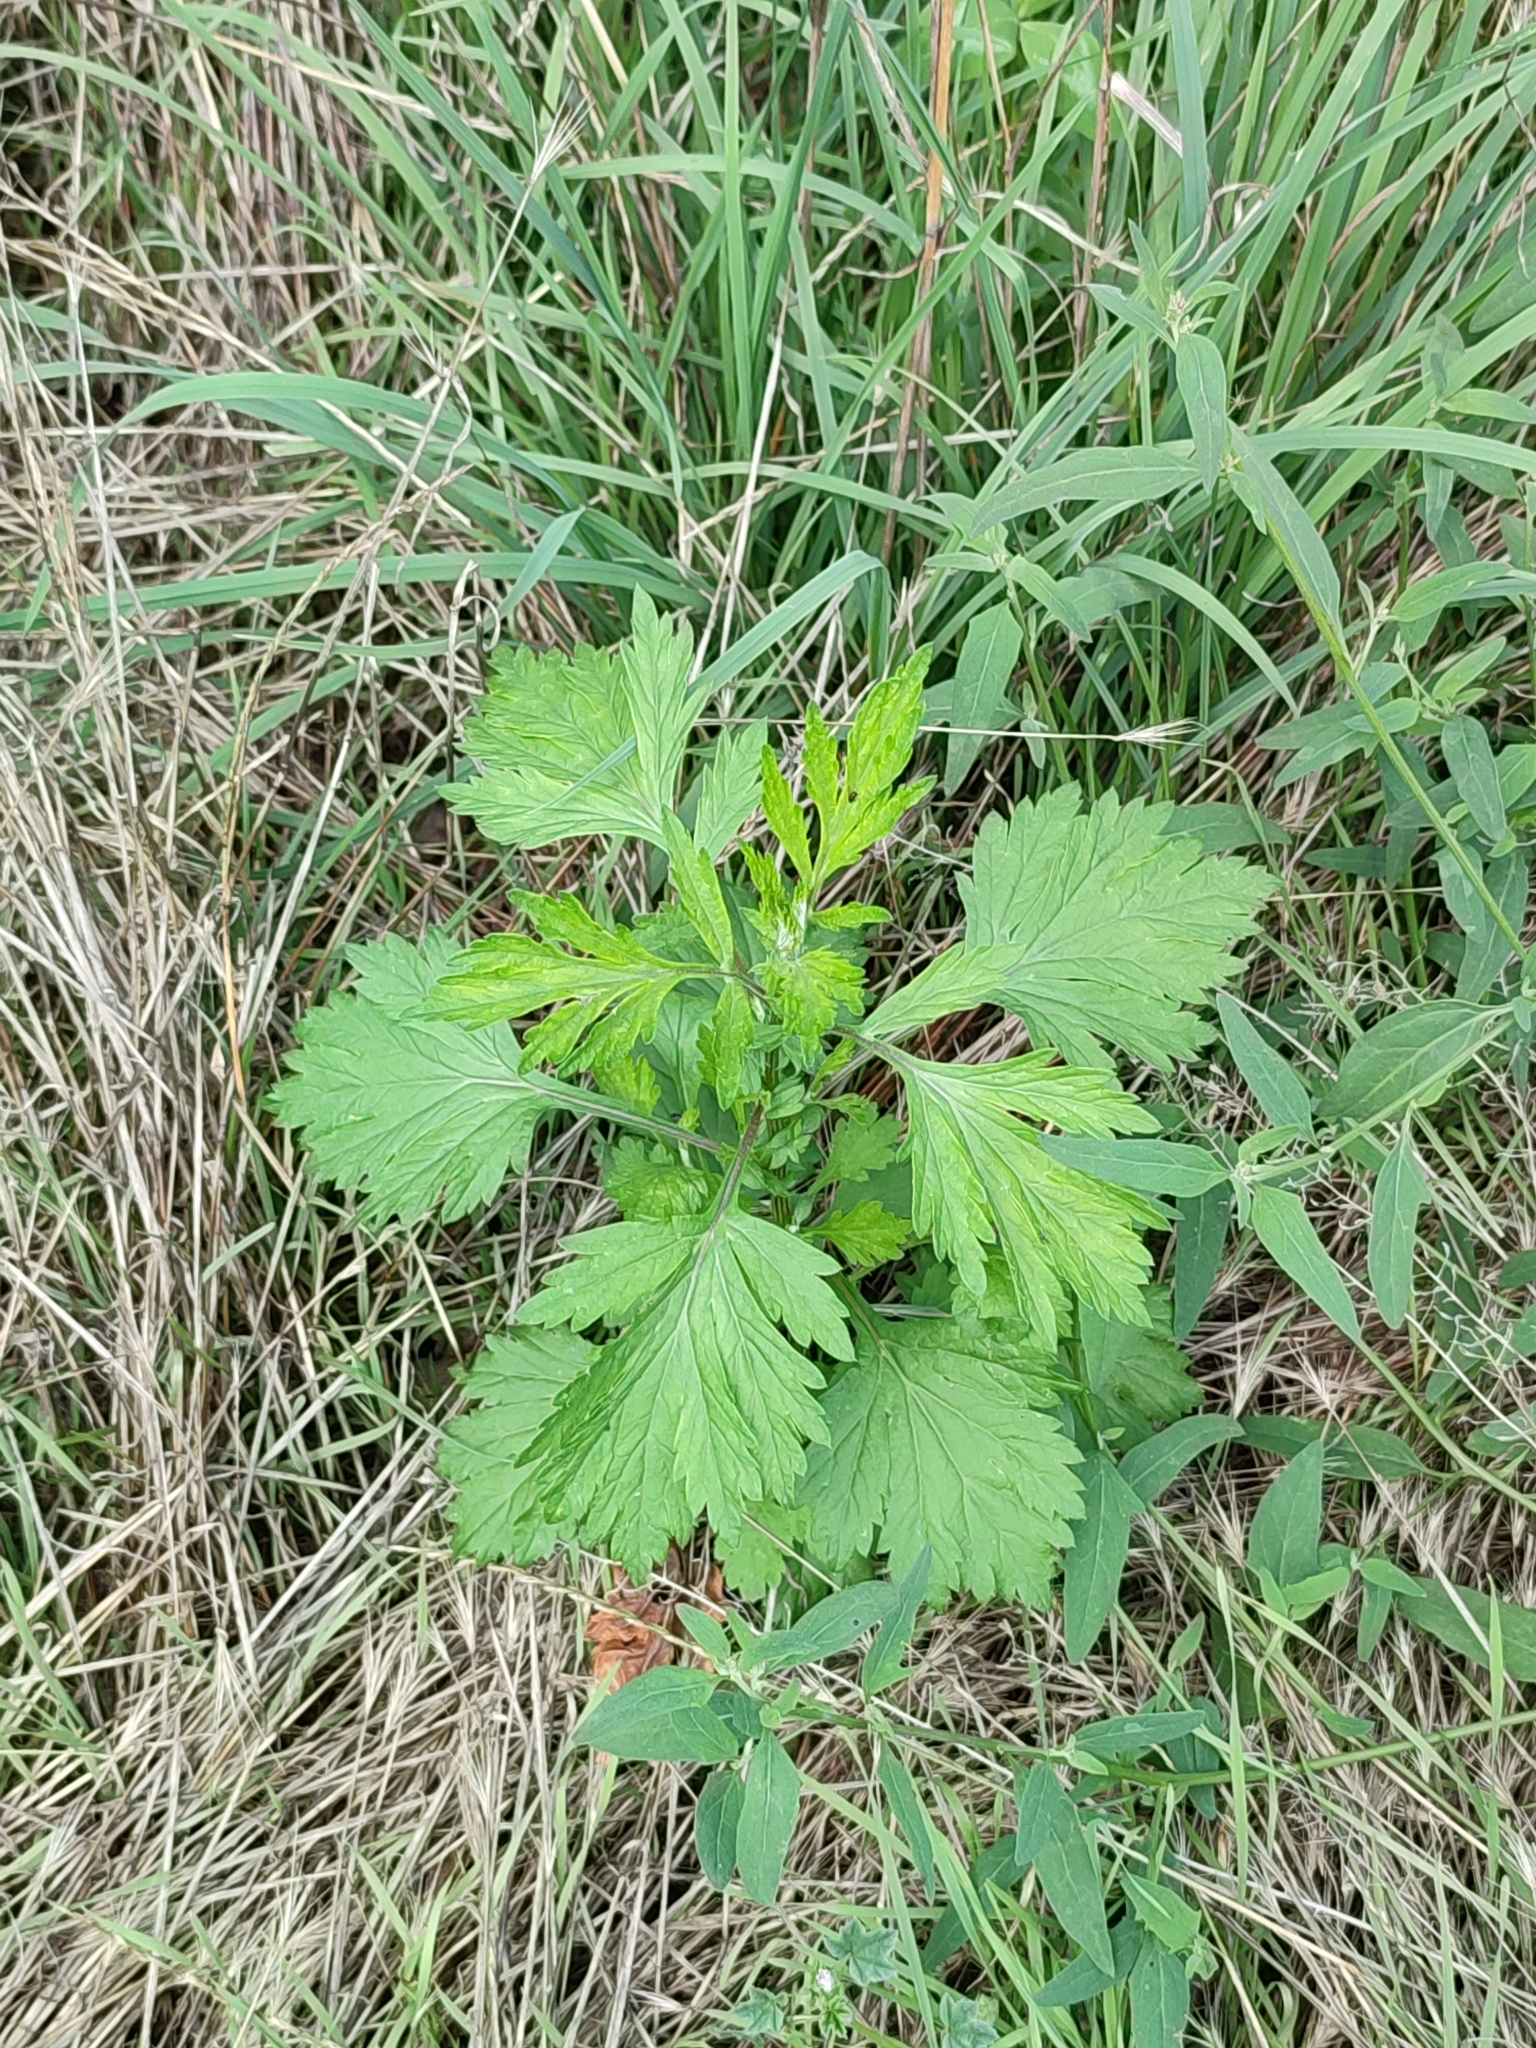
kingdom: Plantae
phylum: Tracheophyta
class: Magnoliopsida
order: Asterales
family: Asteraceae
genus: Artemisia
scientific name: Artemisia vulgaris
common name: Mugwort
